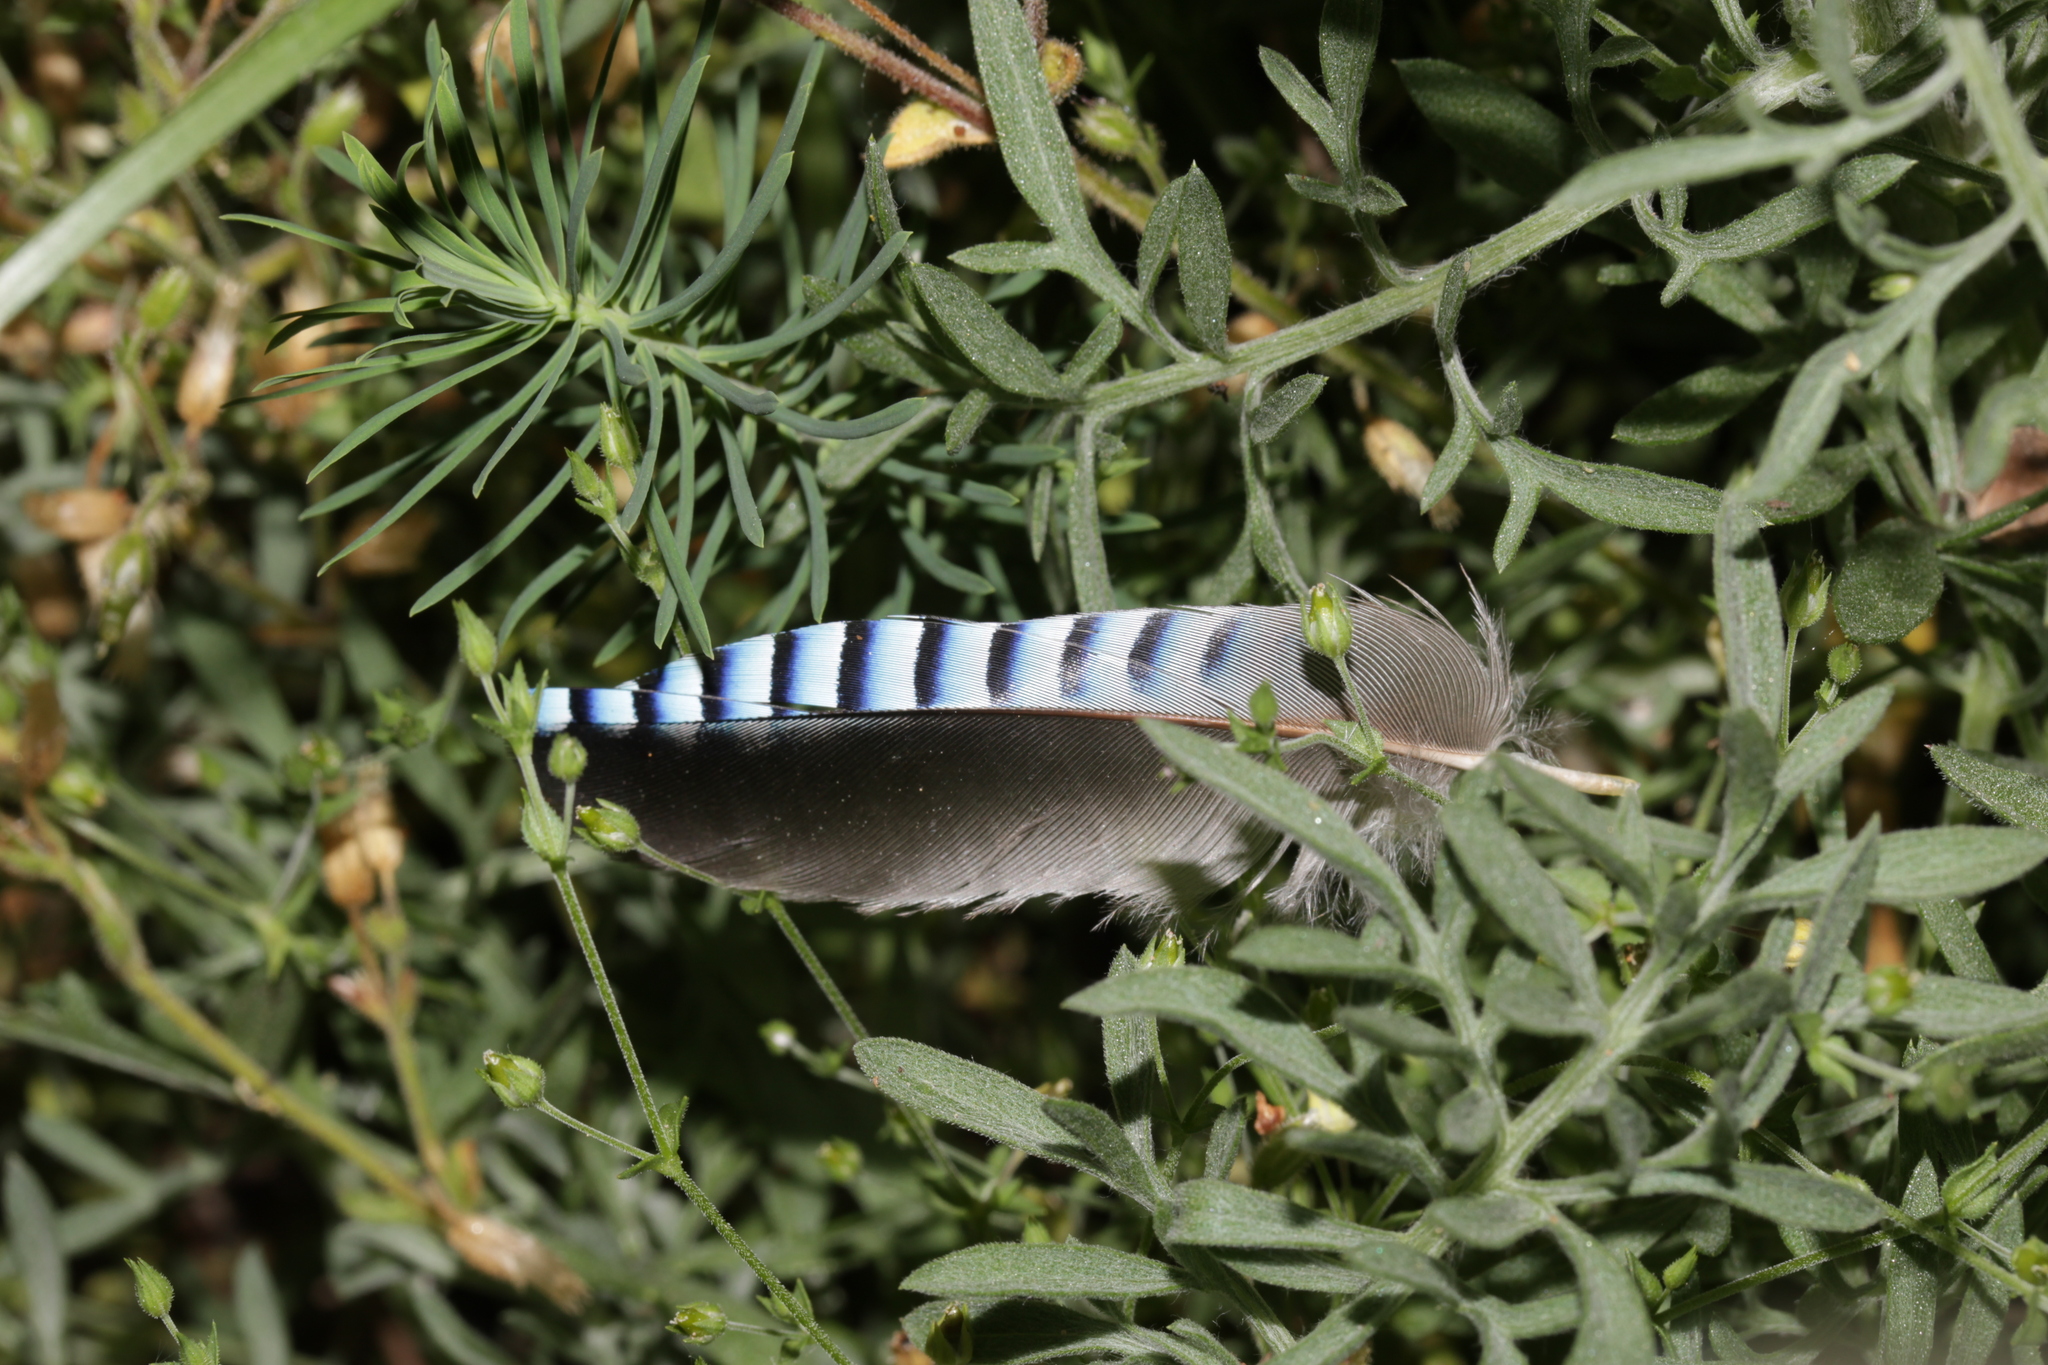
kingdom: Animalia
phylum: Chordata
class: Aves
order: Passeriformes
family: Corvidae
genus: Garrulus
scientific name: Garrulus glandarius
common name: Eurasian jay
